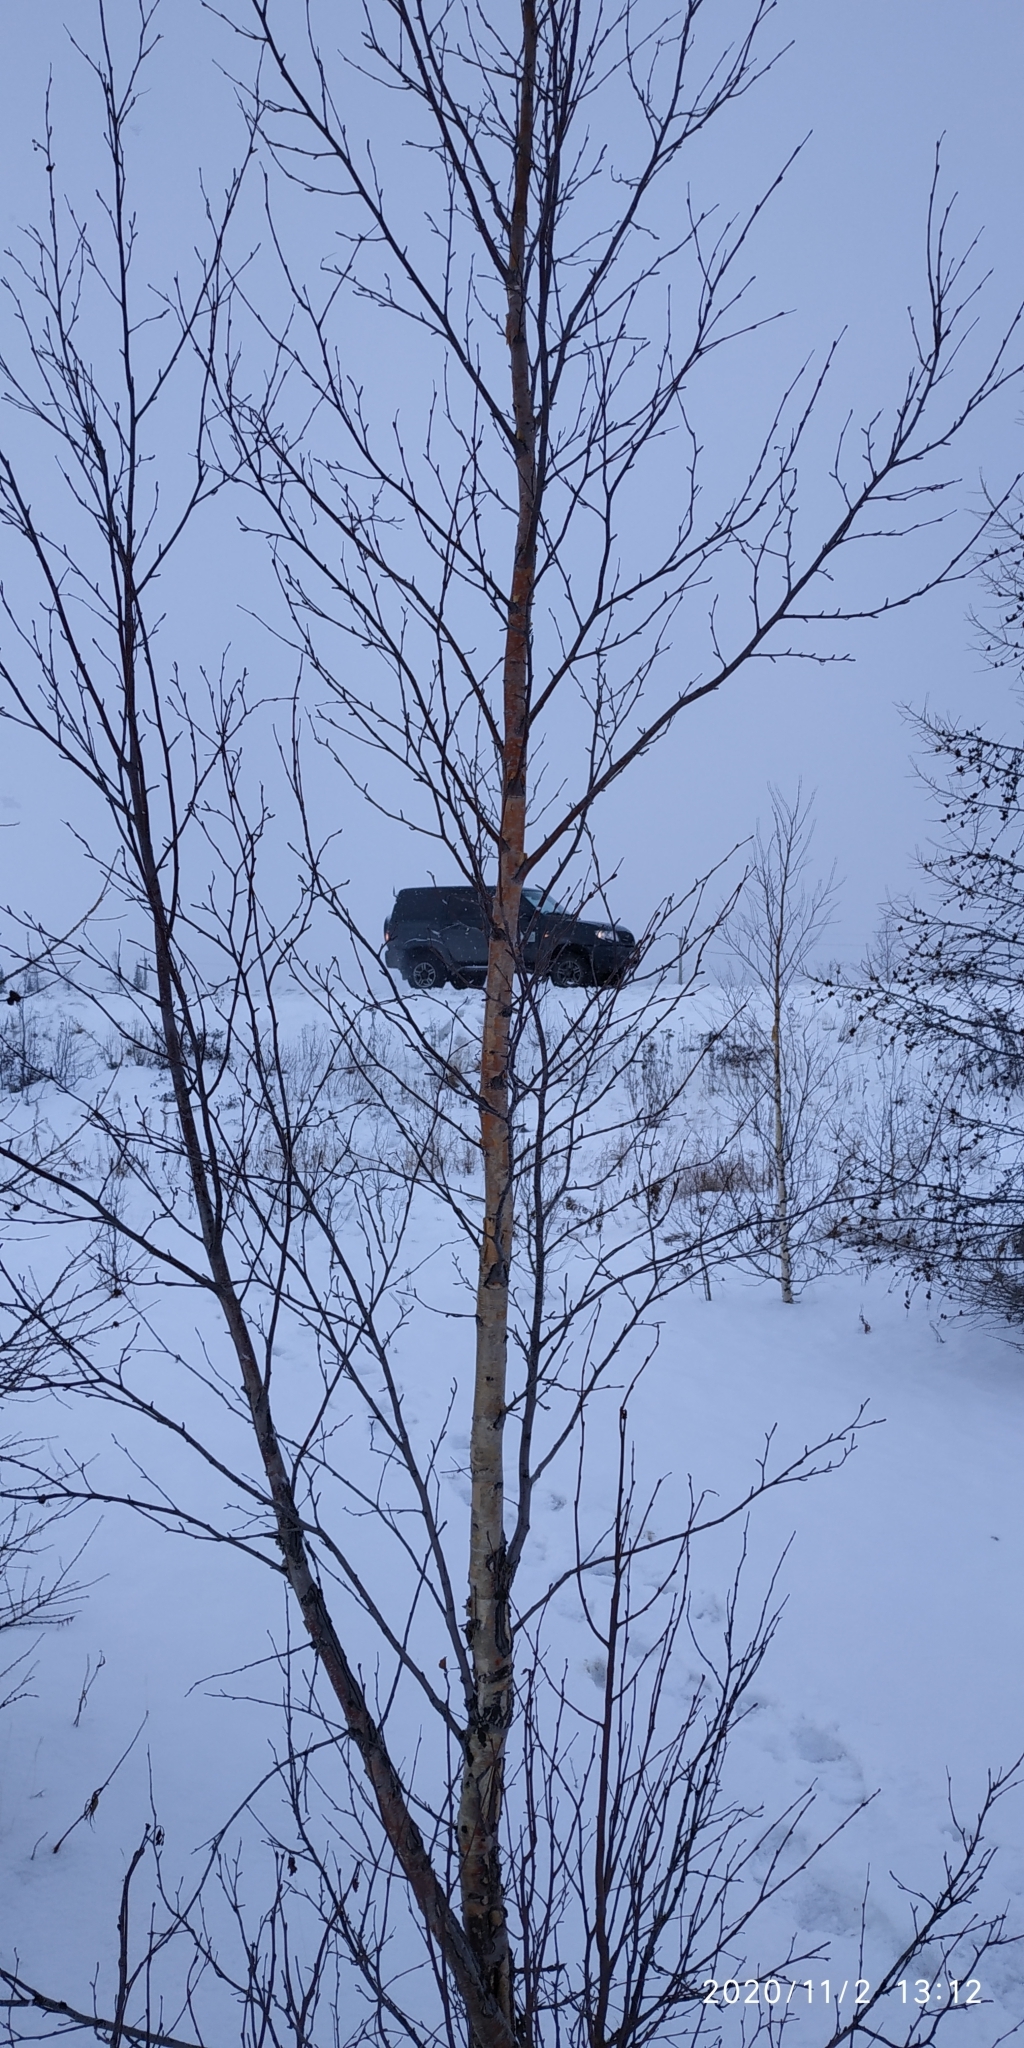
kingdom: Plantae
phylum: Tracheophyta
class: Magnoliopsida
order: Fagales
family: Betulaceae
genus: Betula
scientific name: Betula pubescens
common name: Downy birch
